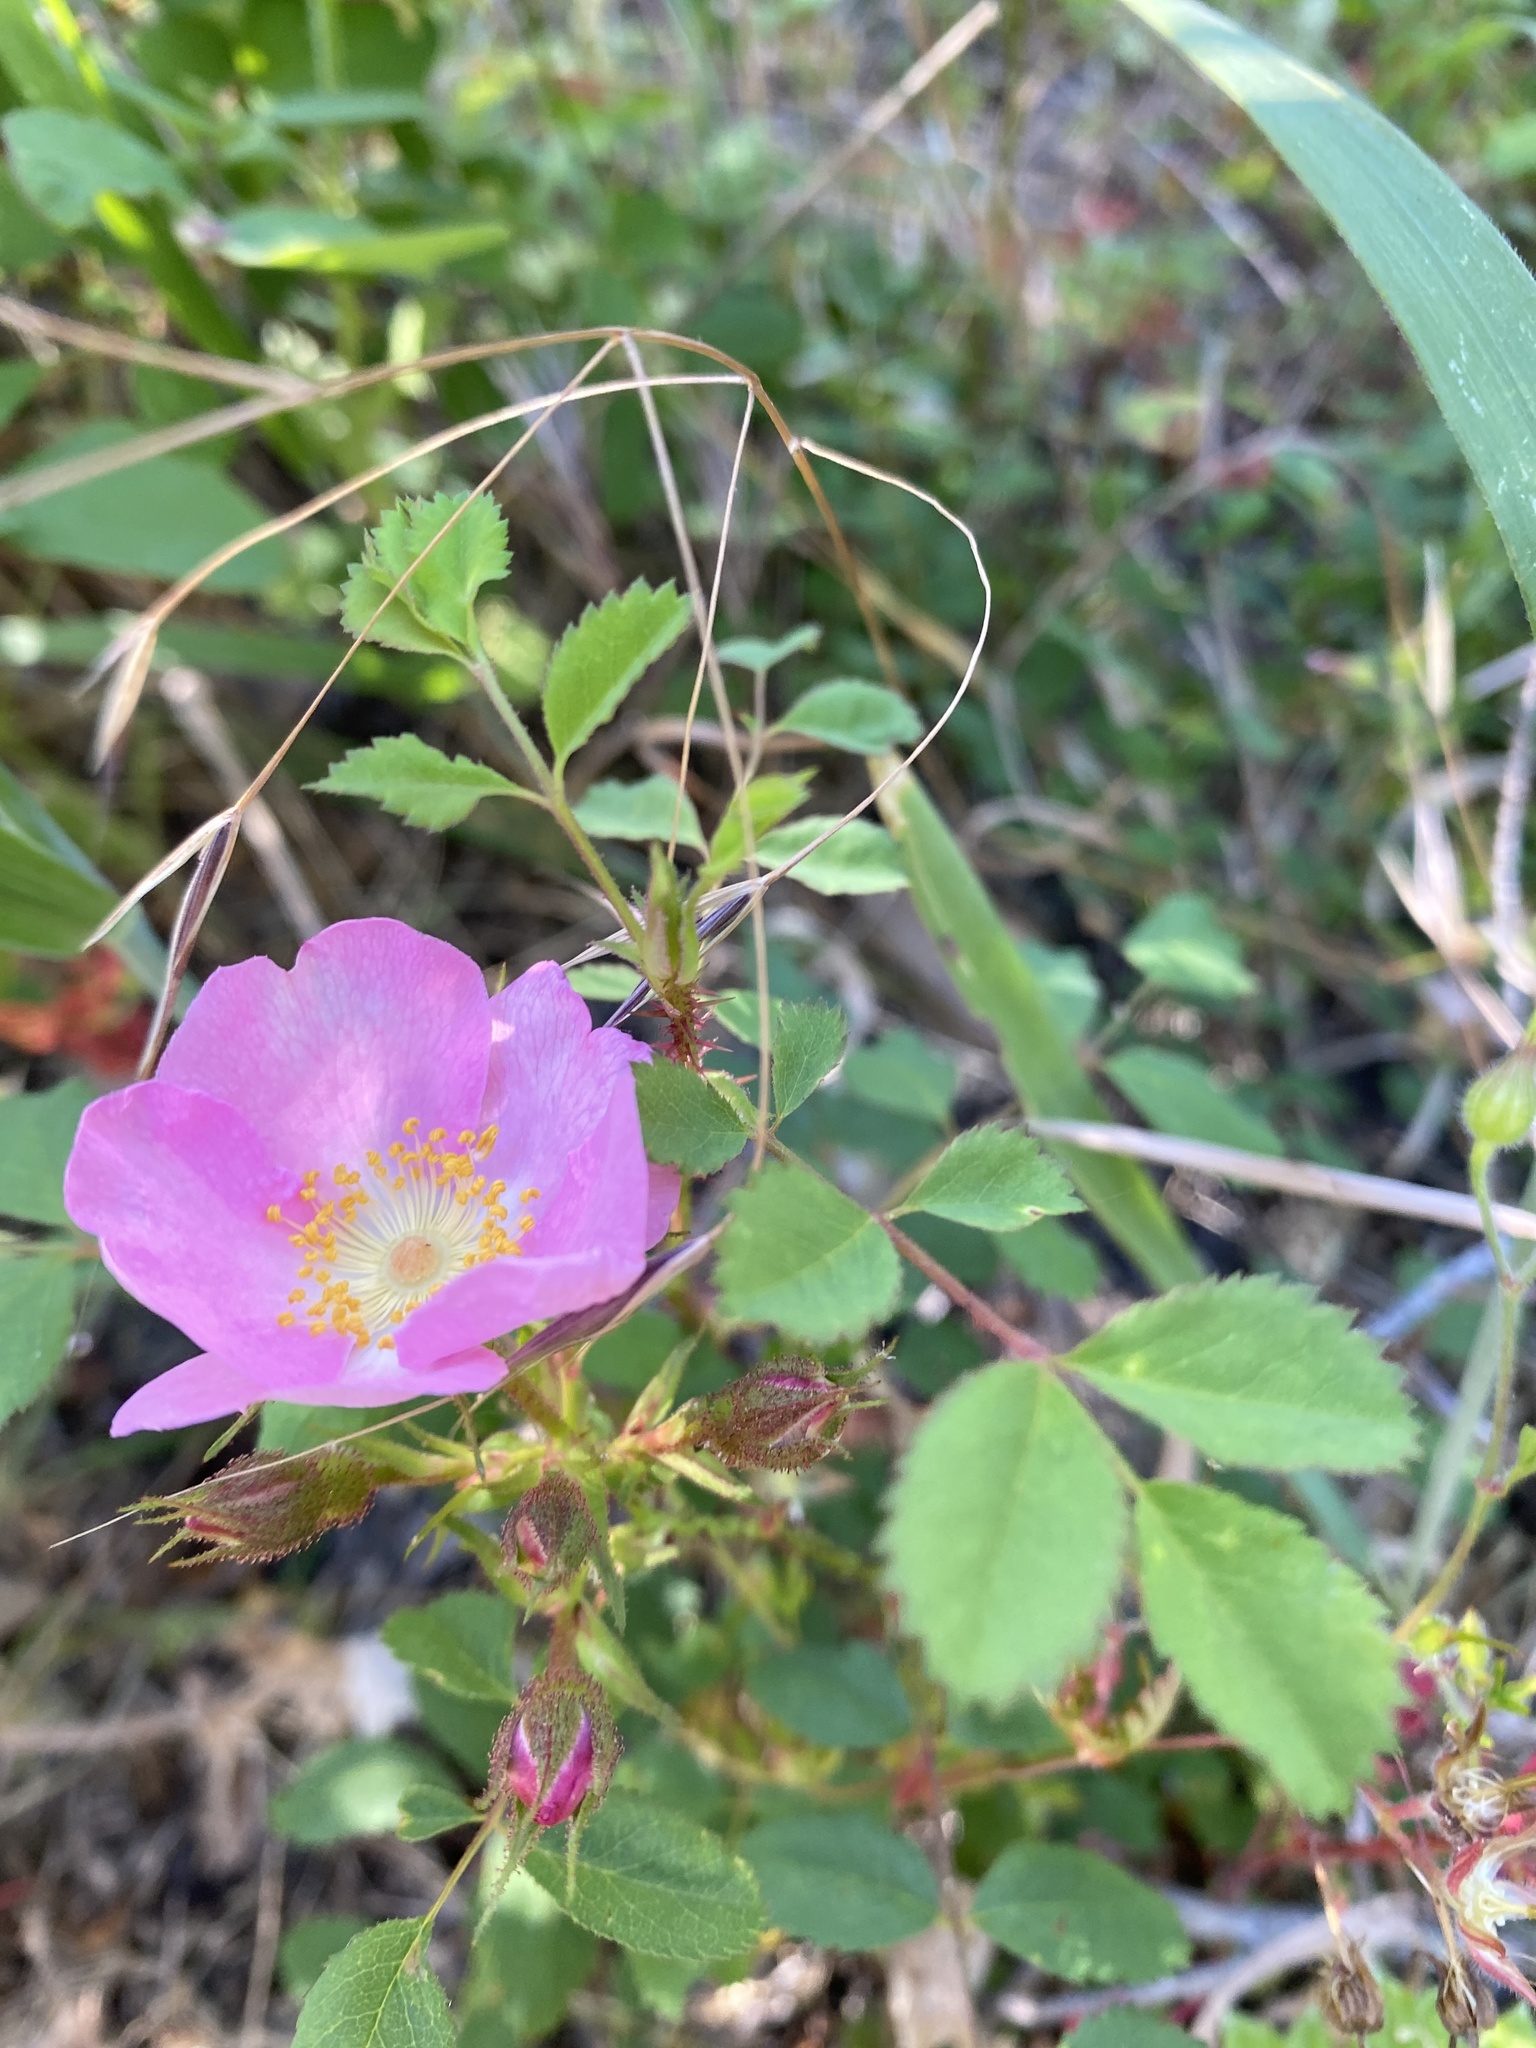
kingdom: Plantae
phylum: Tracheophyta
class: Magnoliopsida
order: Rosales
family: Rosaceae
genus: Rosa
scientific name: Rosa spithamea
